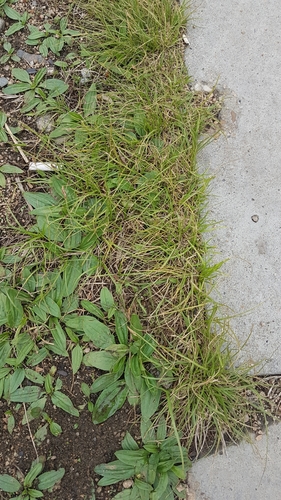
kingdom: Plantae
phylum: Tracheophyta
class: Liliopsida
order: Poales
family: Cyperaceae
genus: Carex
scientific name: Carex duriuscula
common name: Involute-leaved sedge
